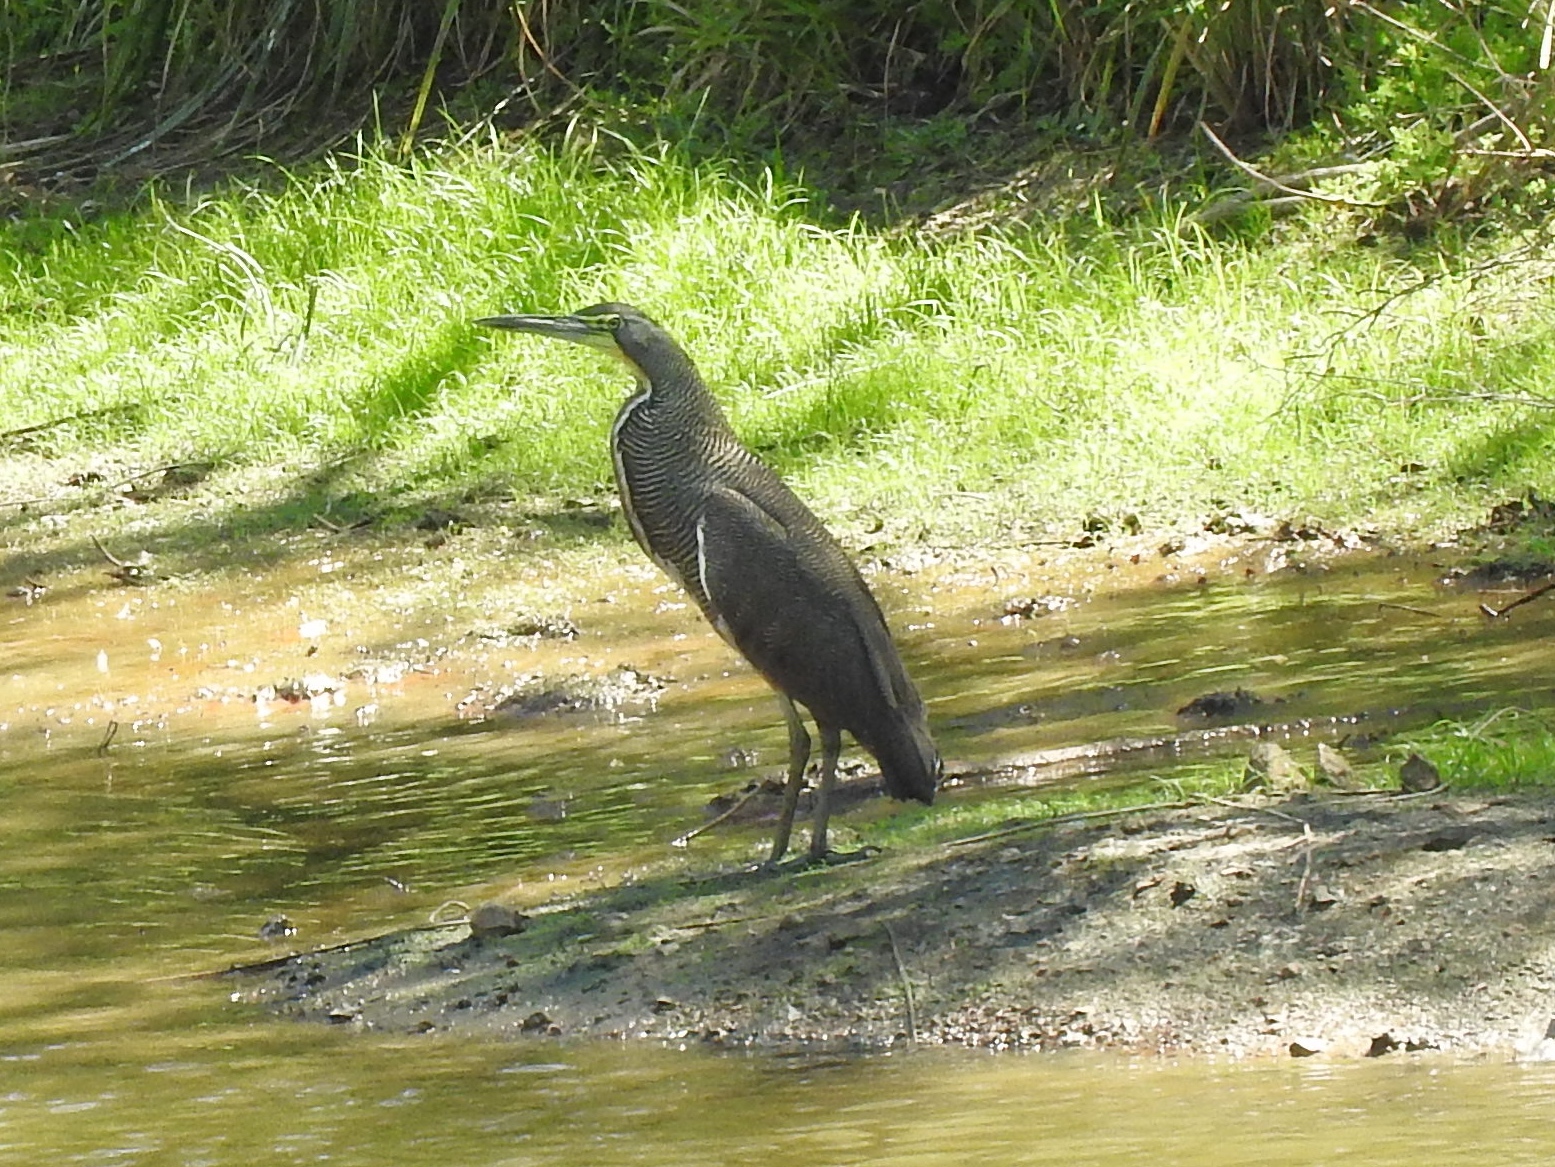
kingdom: Animalia
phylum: Chordata
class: Aves
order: Pelecaniformes
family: Ardeidae
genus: Tigrisoma
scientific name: Tigrisoma mexicanum
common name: Bare-throated tiger-heron
